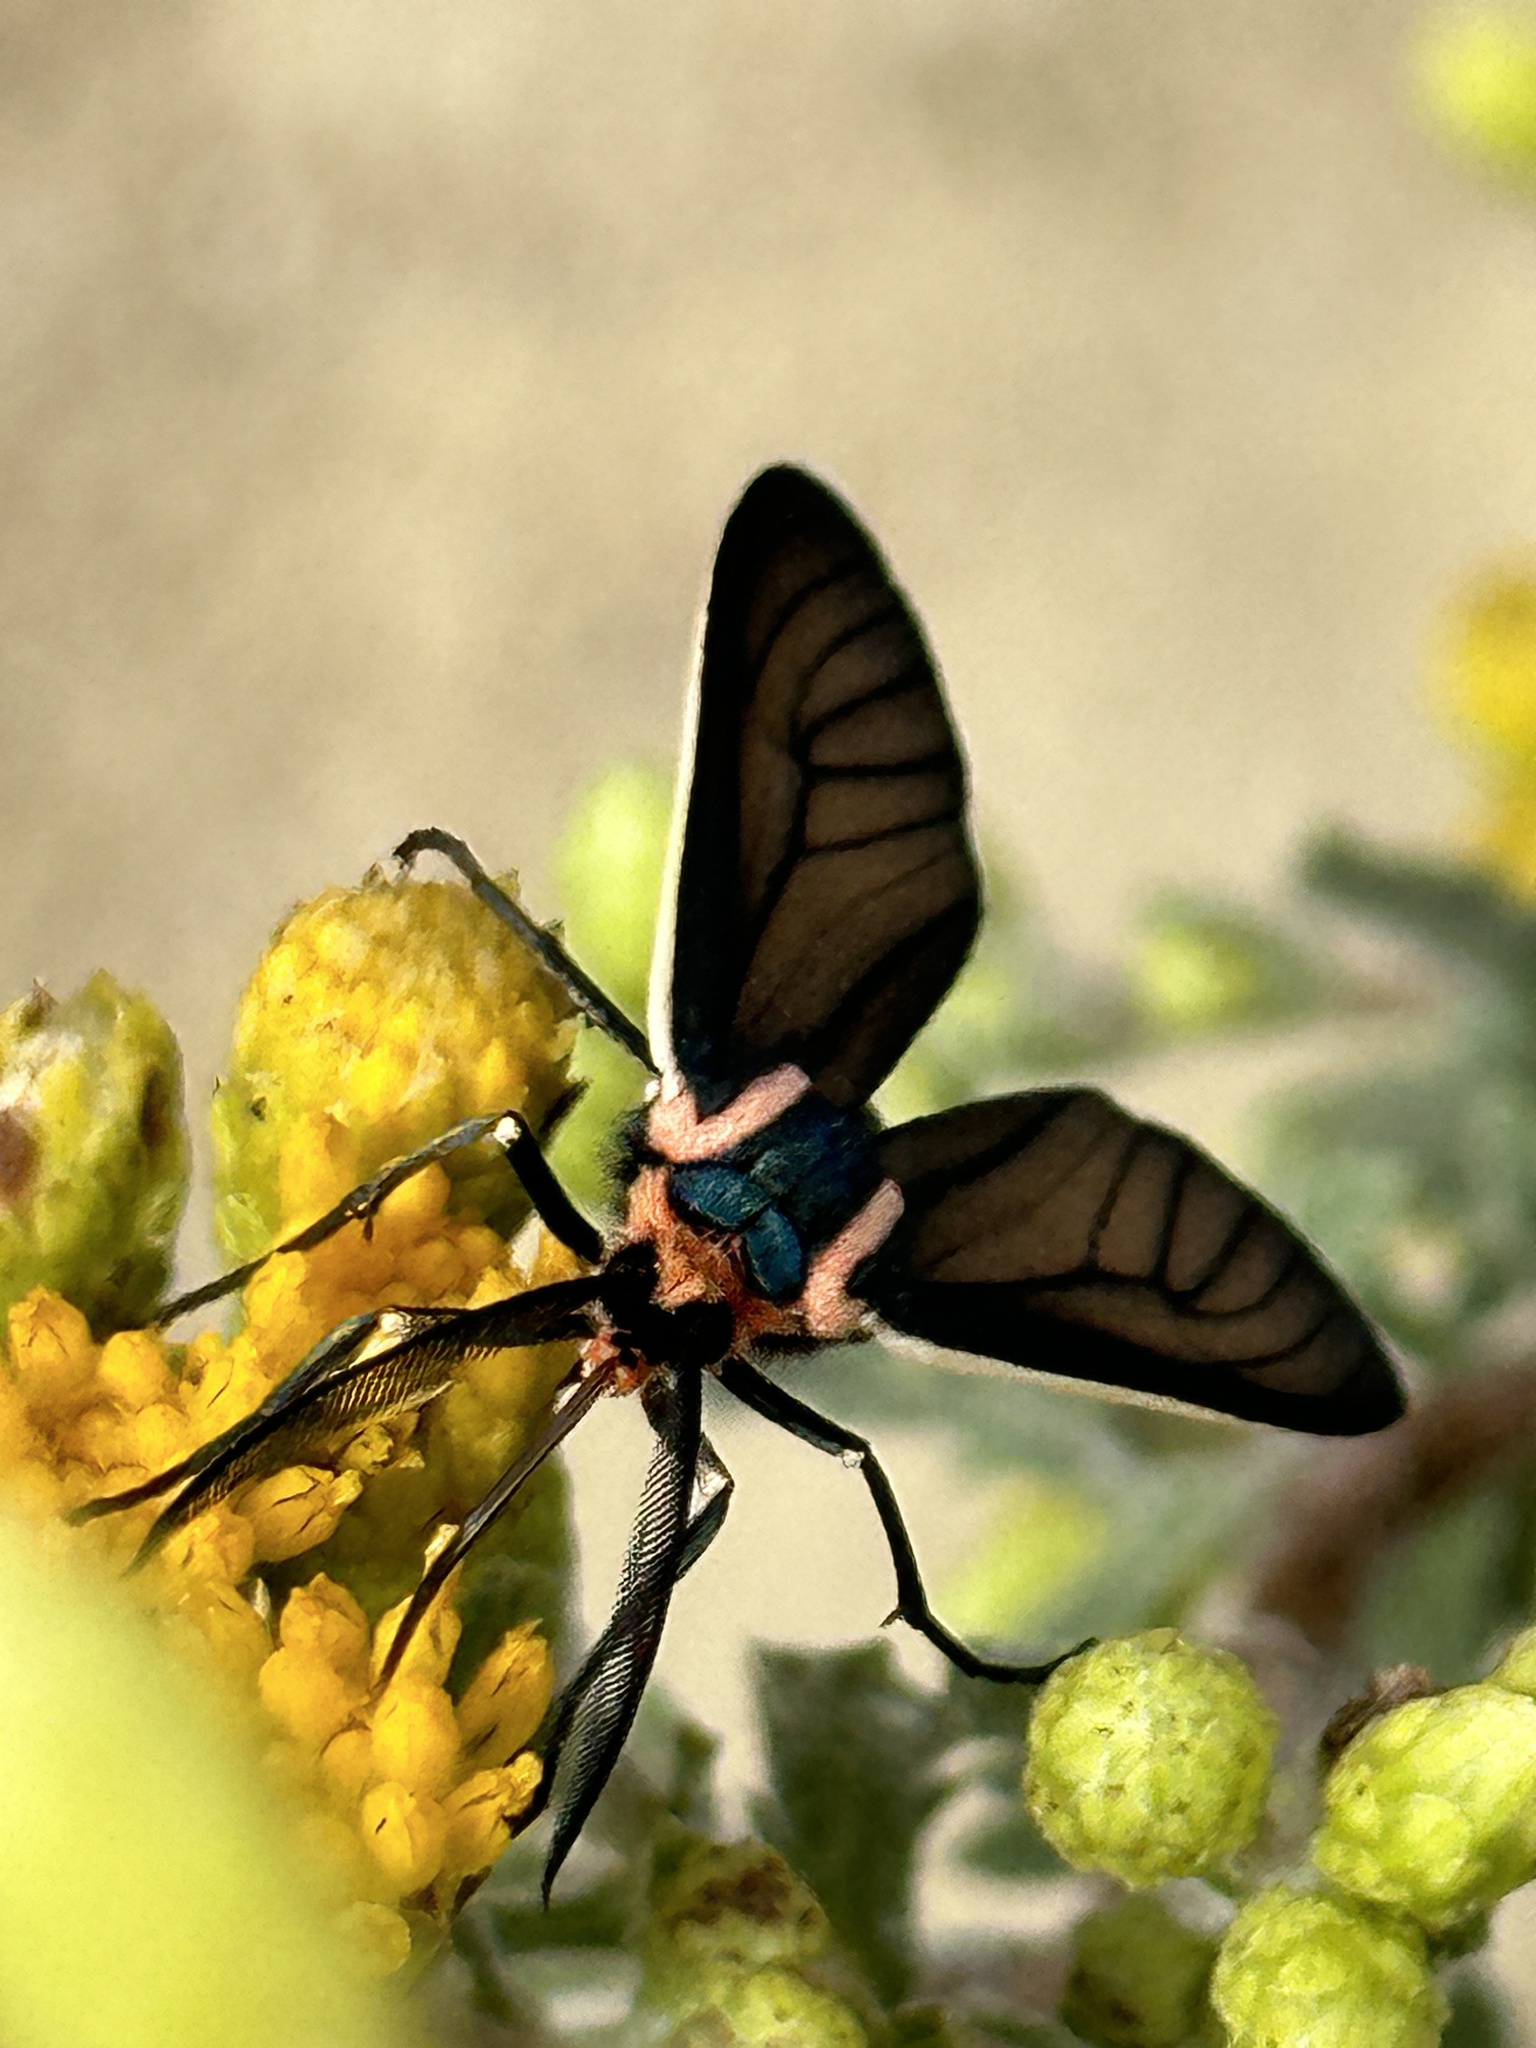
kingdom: Animalia
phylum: Arthropoda
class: Insecta
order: Lepidoptera
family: Erebidae
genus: Ctenucha
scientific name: Ctenucha brunnea
